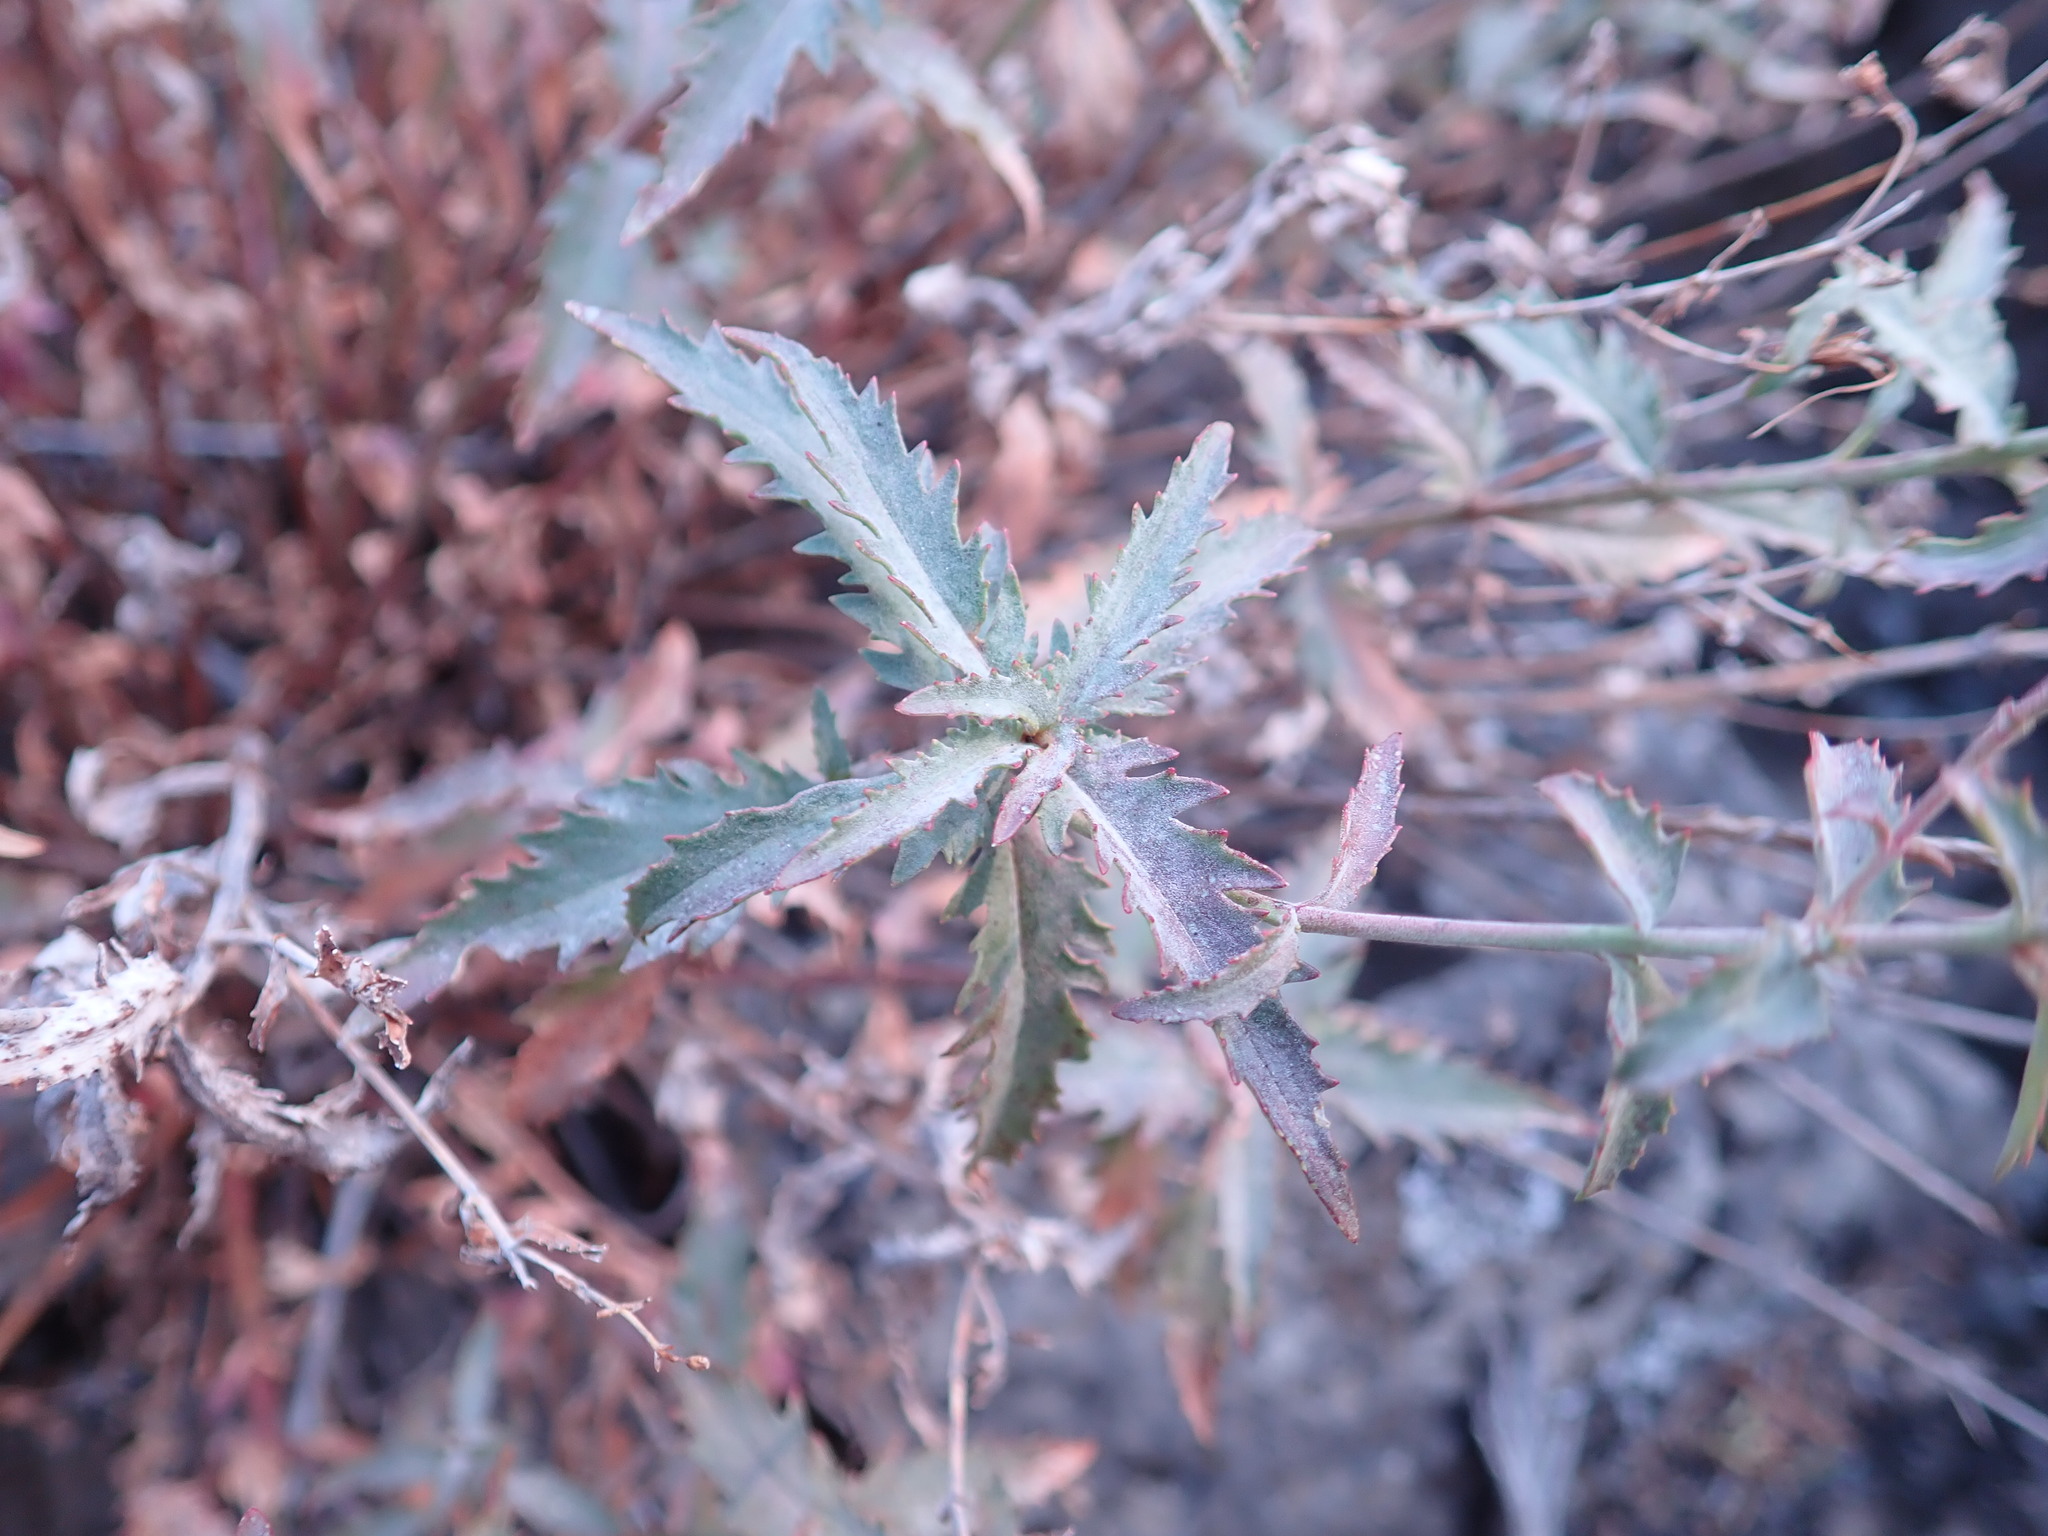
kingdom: Plantae
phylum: Tracheophyta
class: Magnoliopsida
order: Lamiales
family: Plantaginaceae
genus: Penstemon
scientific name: Penstemon richardsonii
